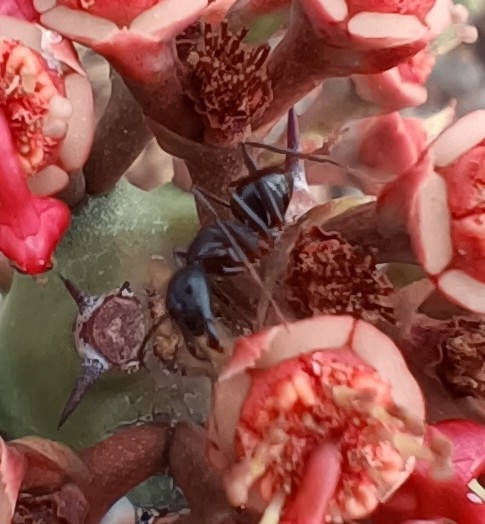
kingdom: Animalia
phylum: Arthropoda
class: Insecta
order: Hymenoptera
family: Formicidae
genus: Camponotus
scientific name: Camponotus compressus
